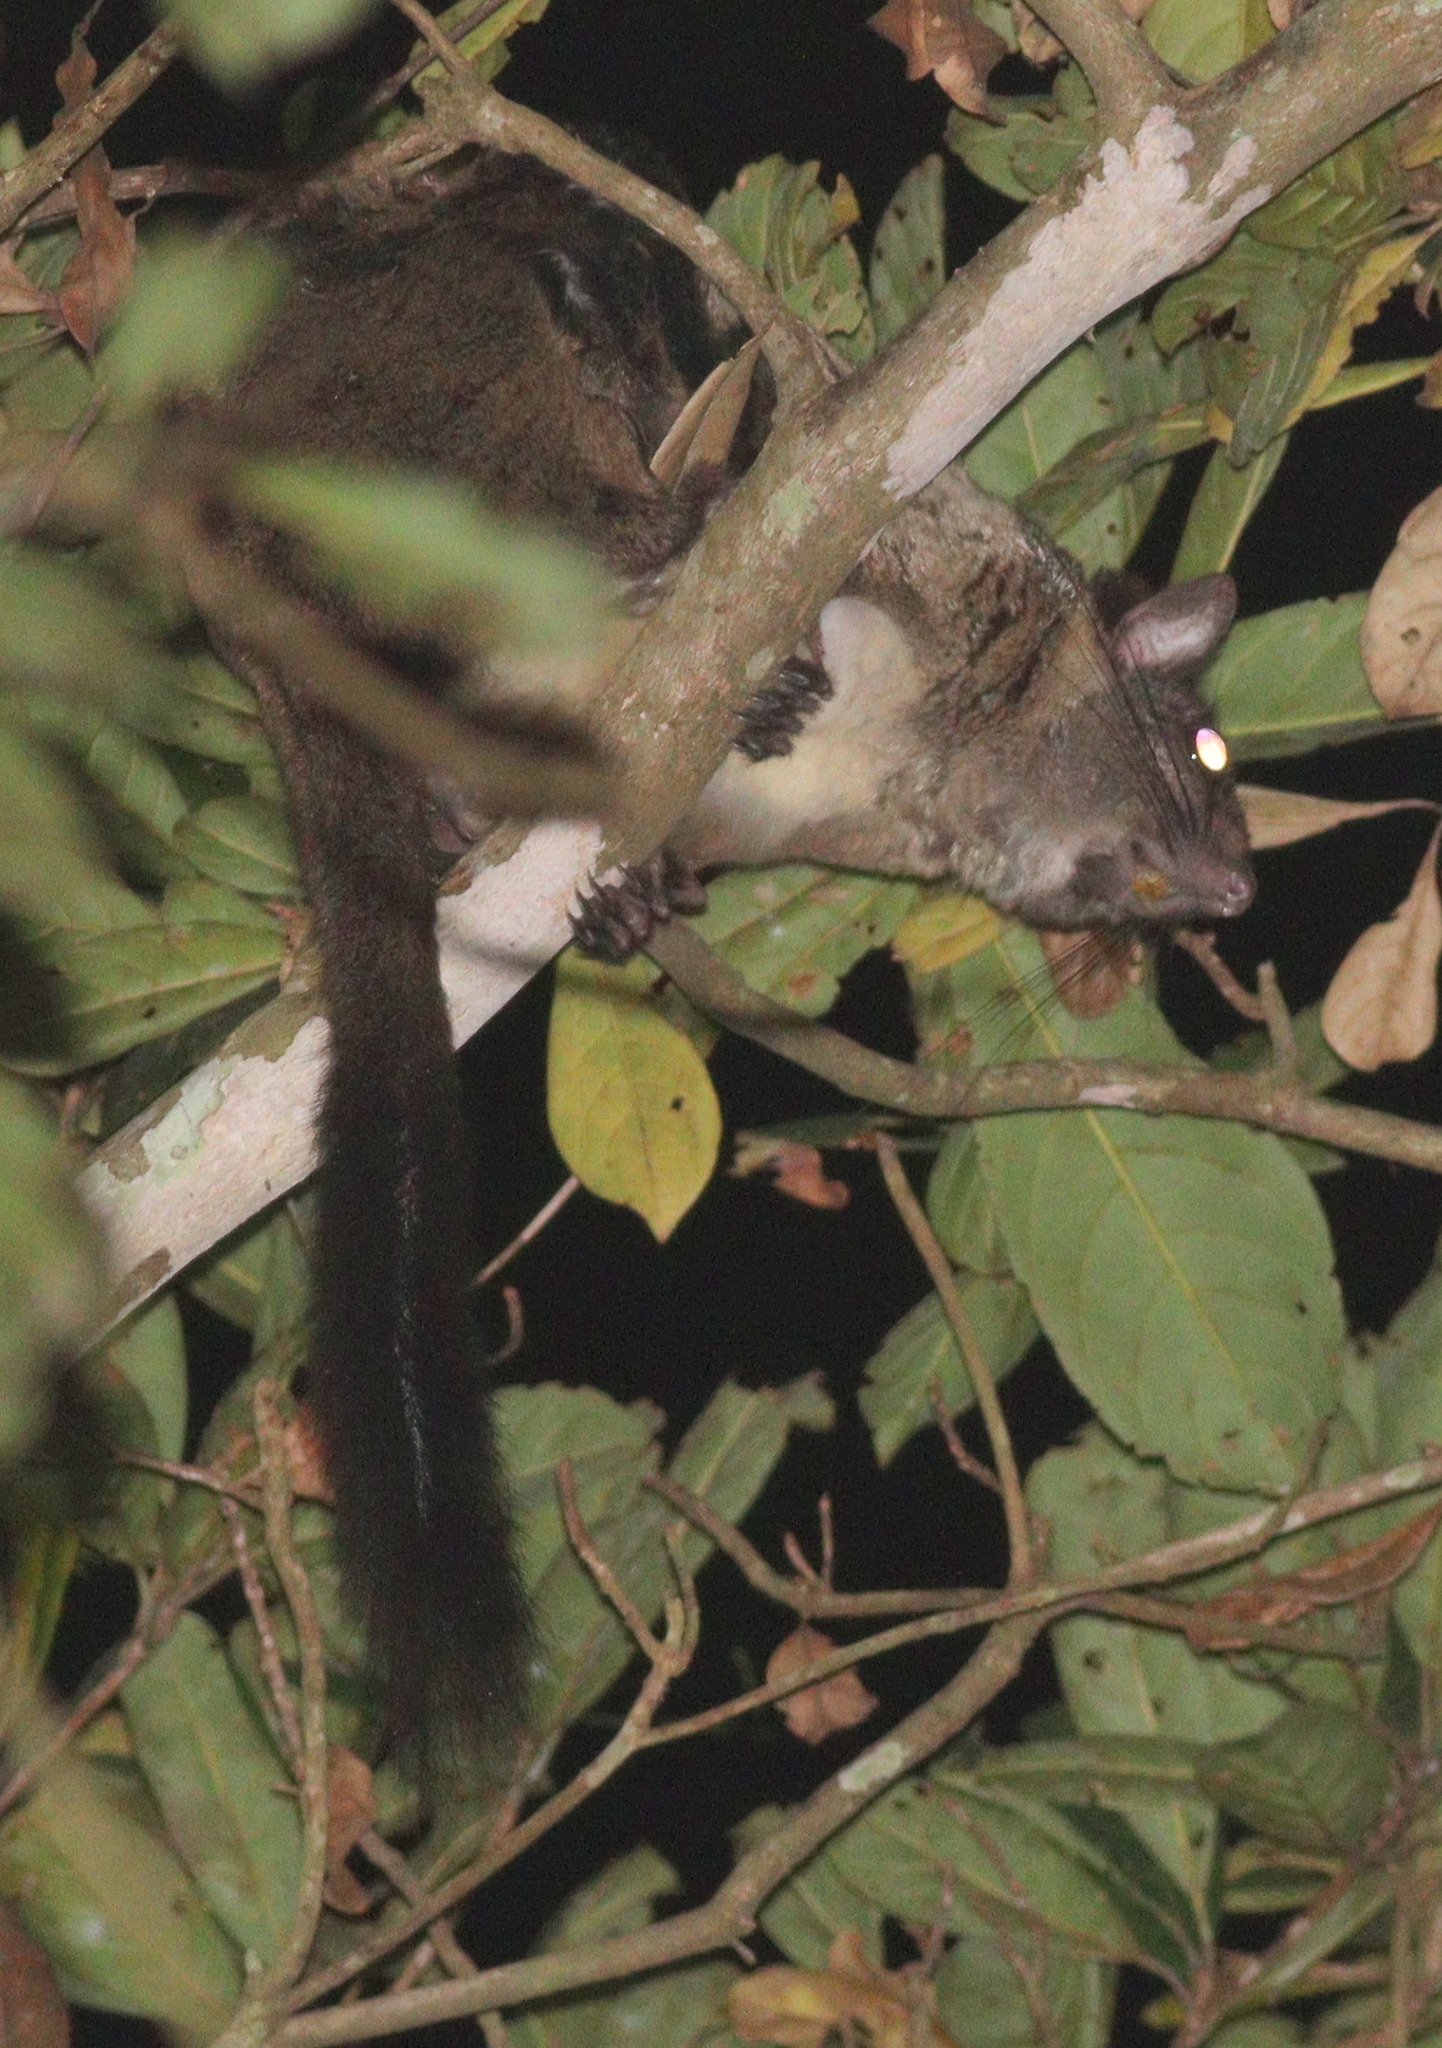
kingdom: Animalia
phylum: Chordata
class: Mammalia
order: Rodentia
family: Anomaluridae
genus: Anomalurus
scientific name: Anomalurus derbianus
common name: Lord derby's flying squirrel
